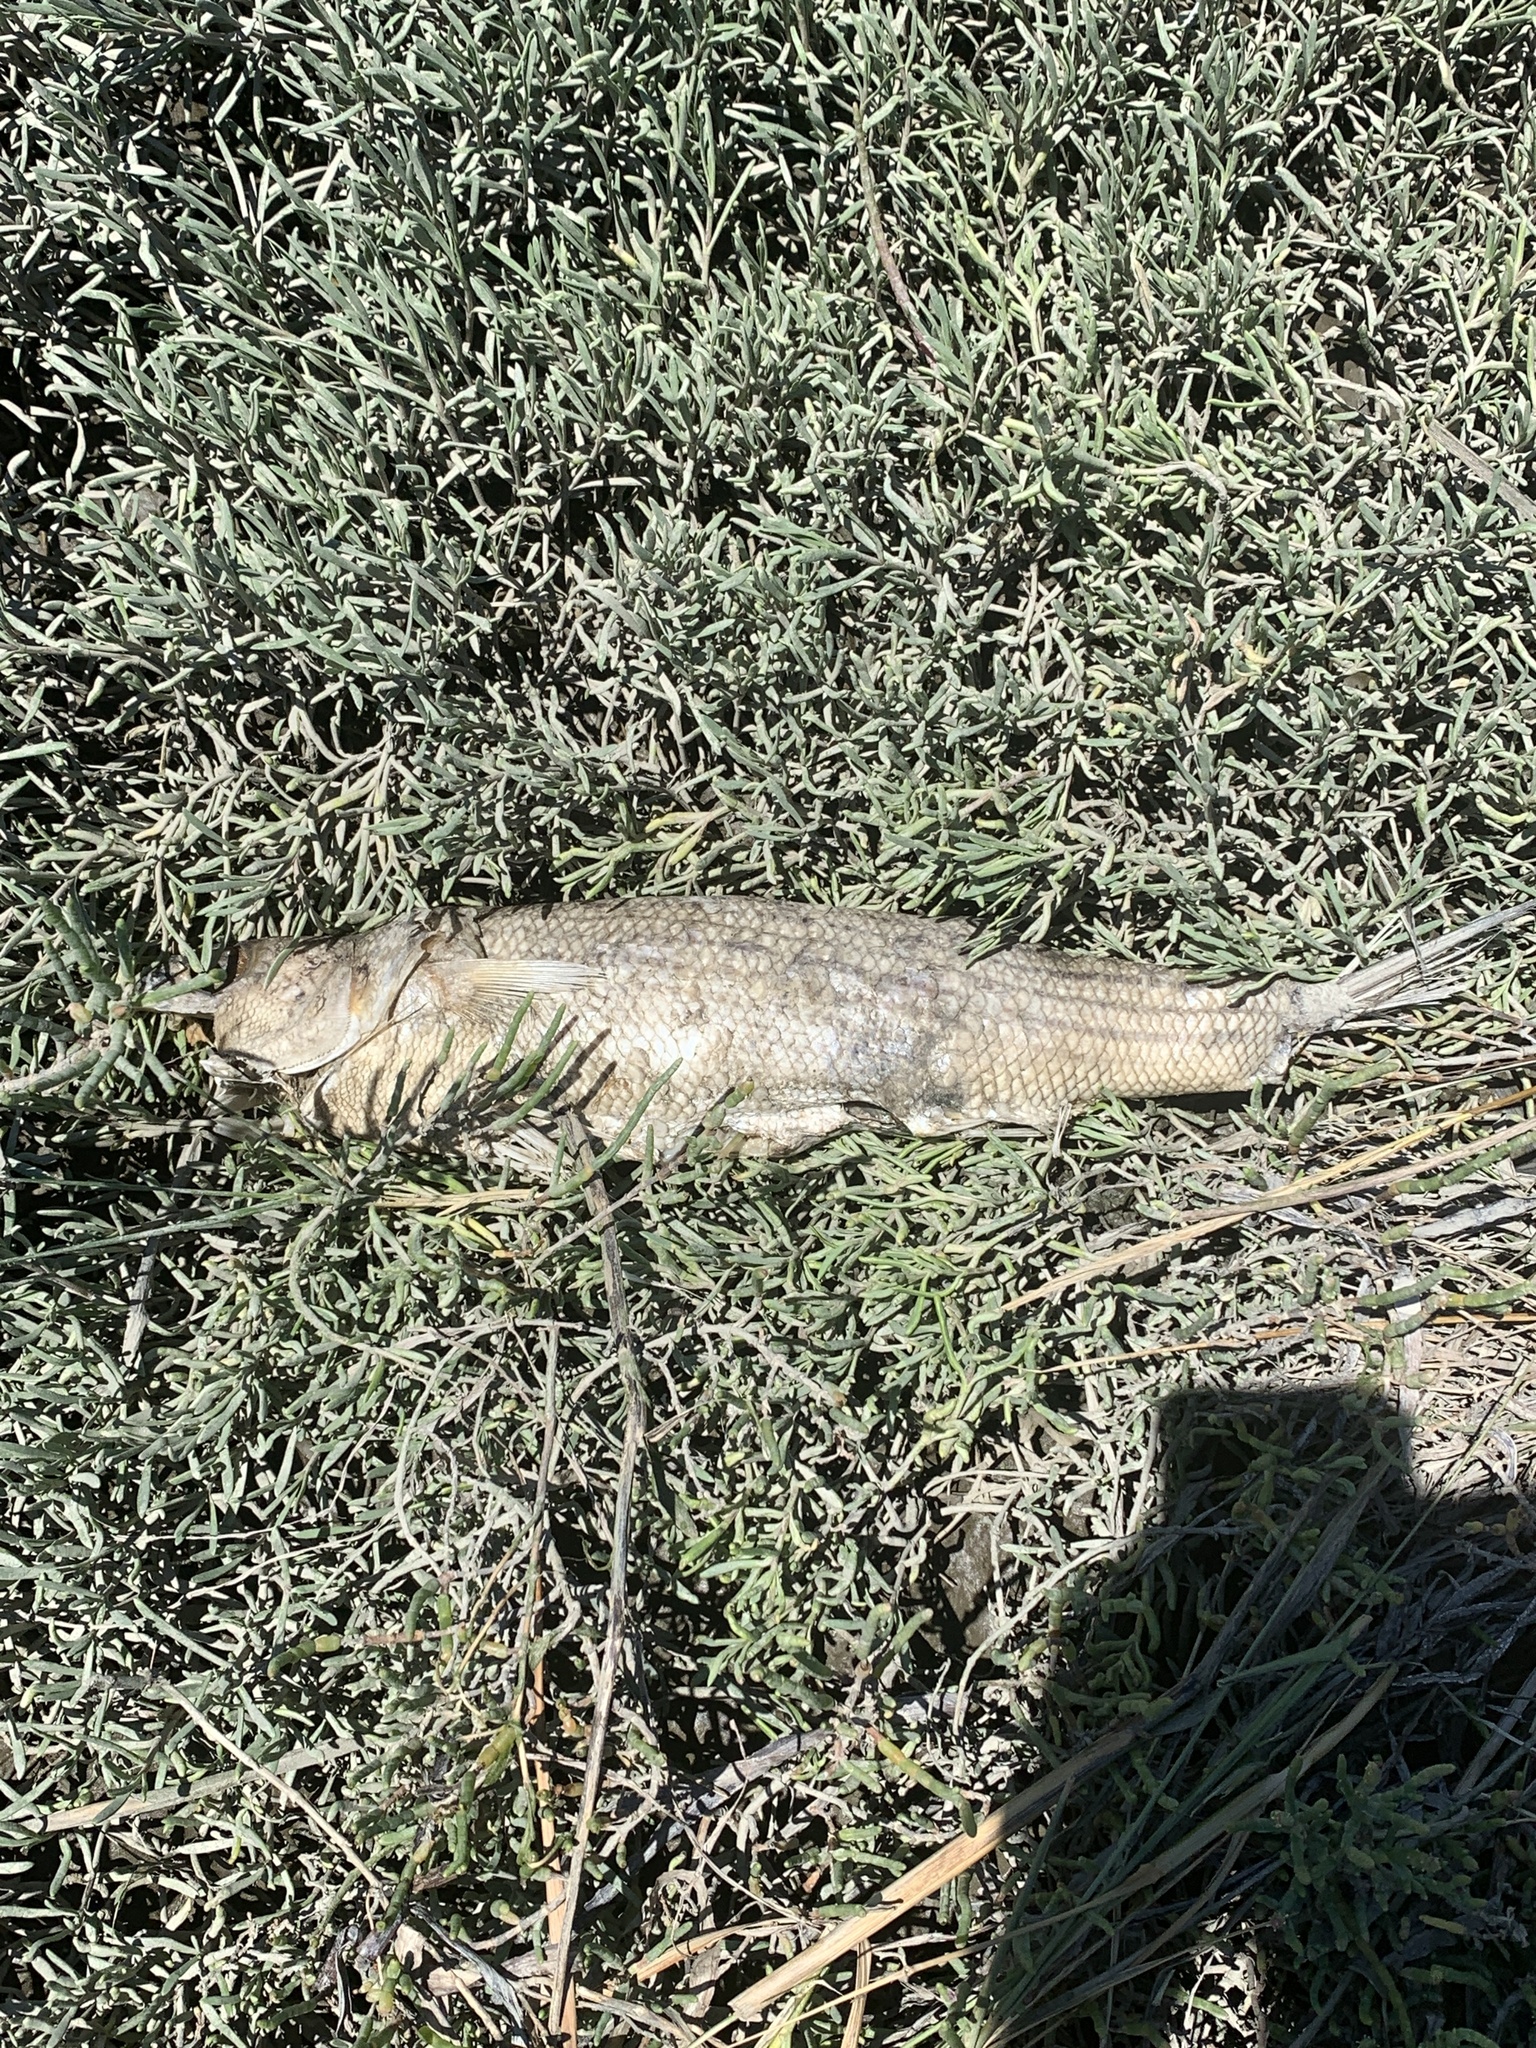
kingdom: Animalia
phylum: Chordata
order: Perciformes
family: Moronidae
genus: Morone
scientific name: Morone saxatilis
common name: Striped bass
